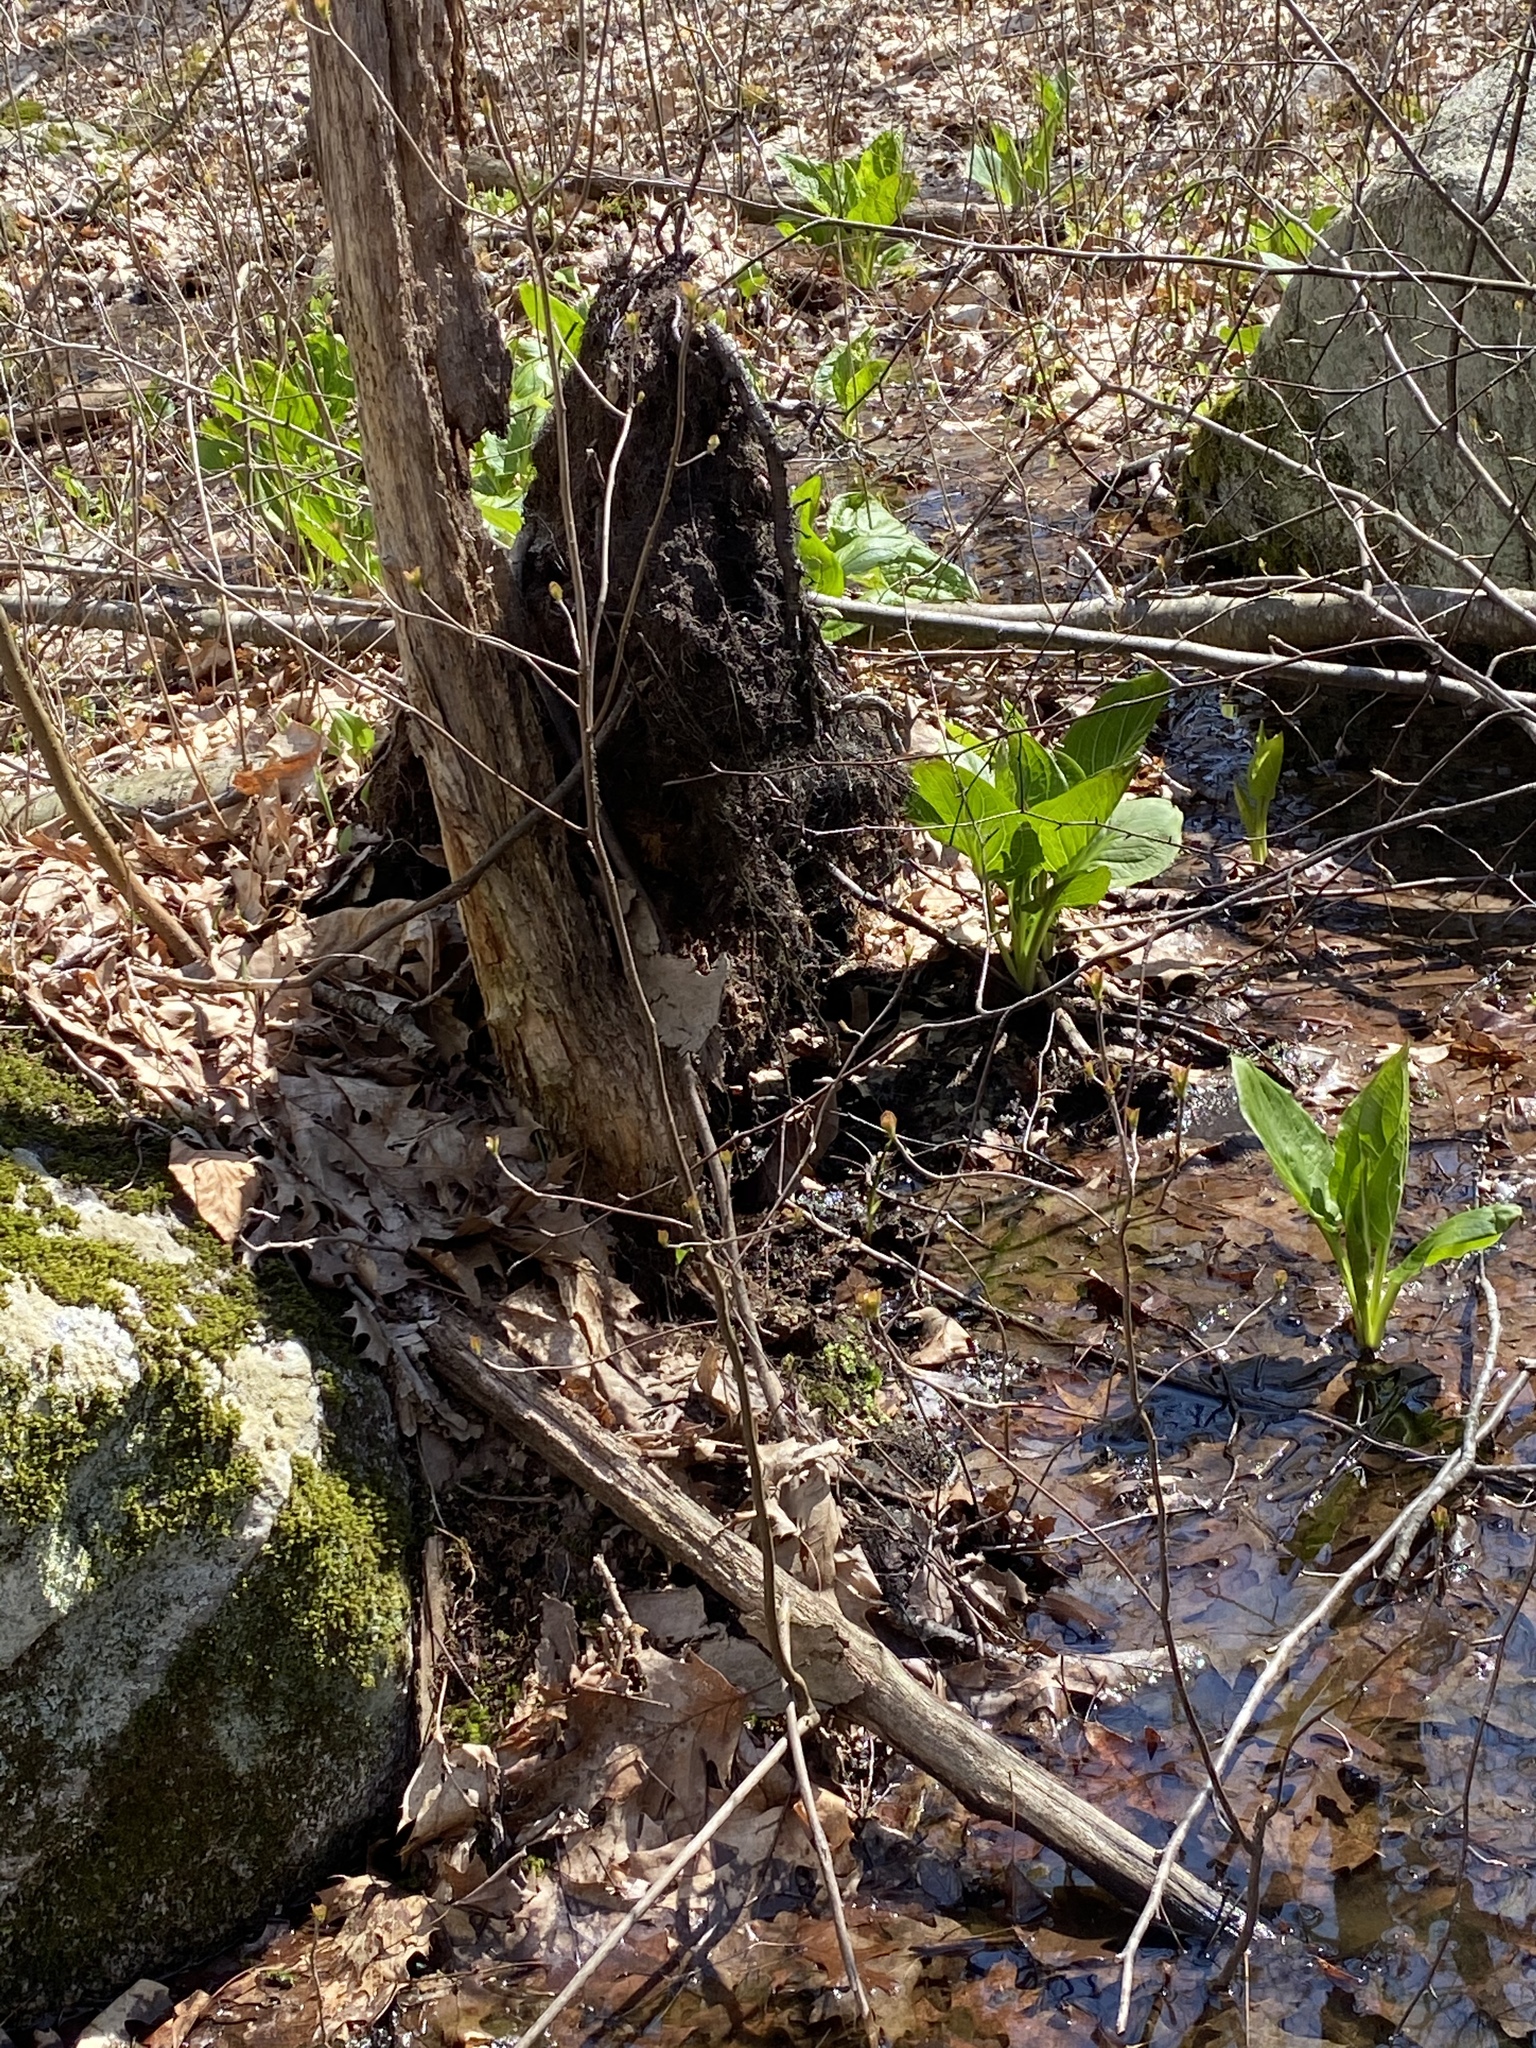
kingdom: Plantae
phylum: Tracheophyta
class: Liliopsida
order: Alismatales
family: Araceae
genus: Symplocarpus
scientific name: Symplocarpus foetidus
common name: Eastern skunk cabbage
